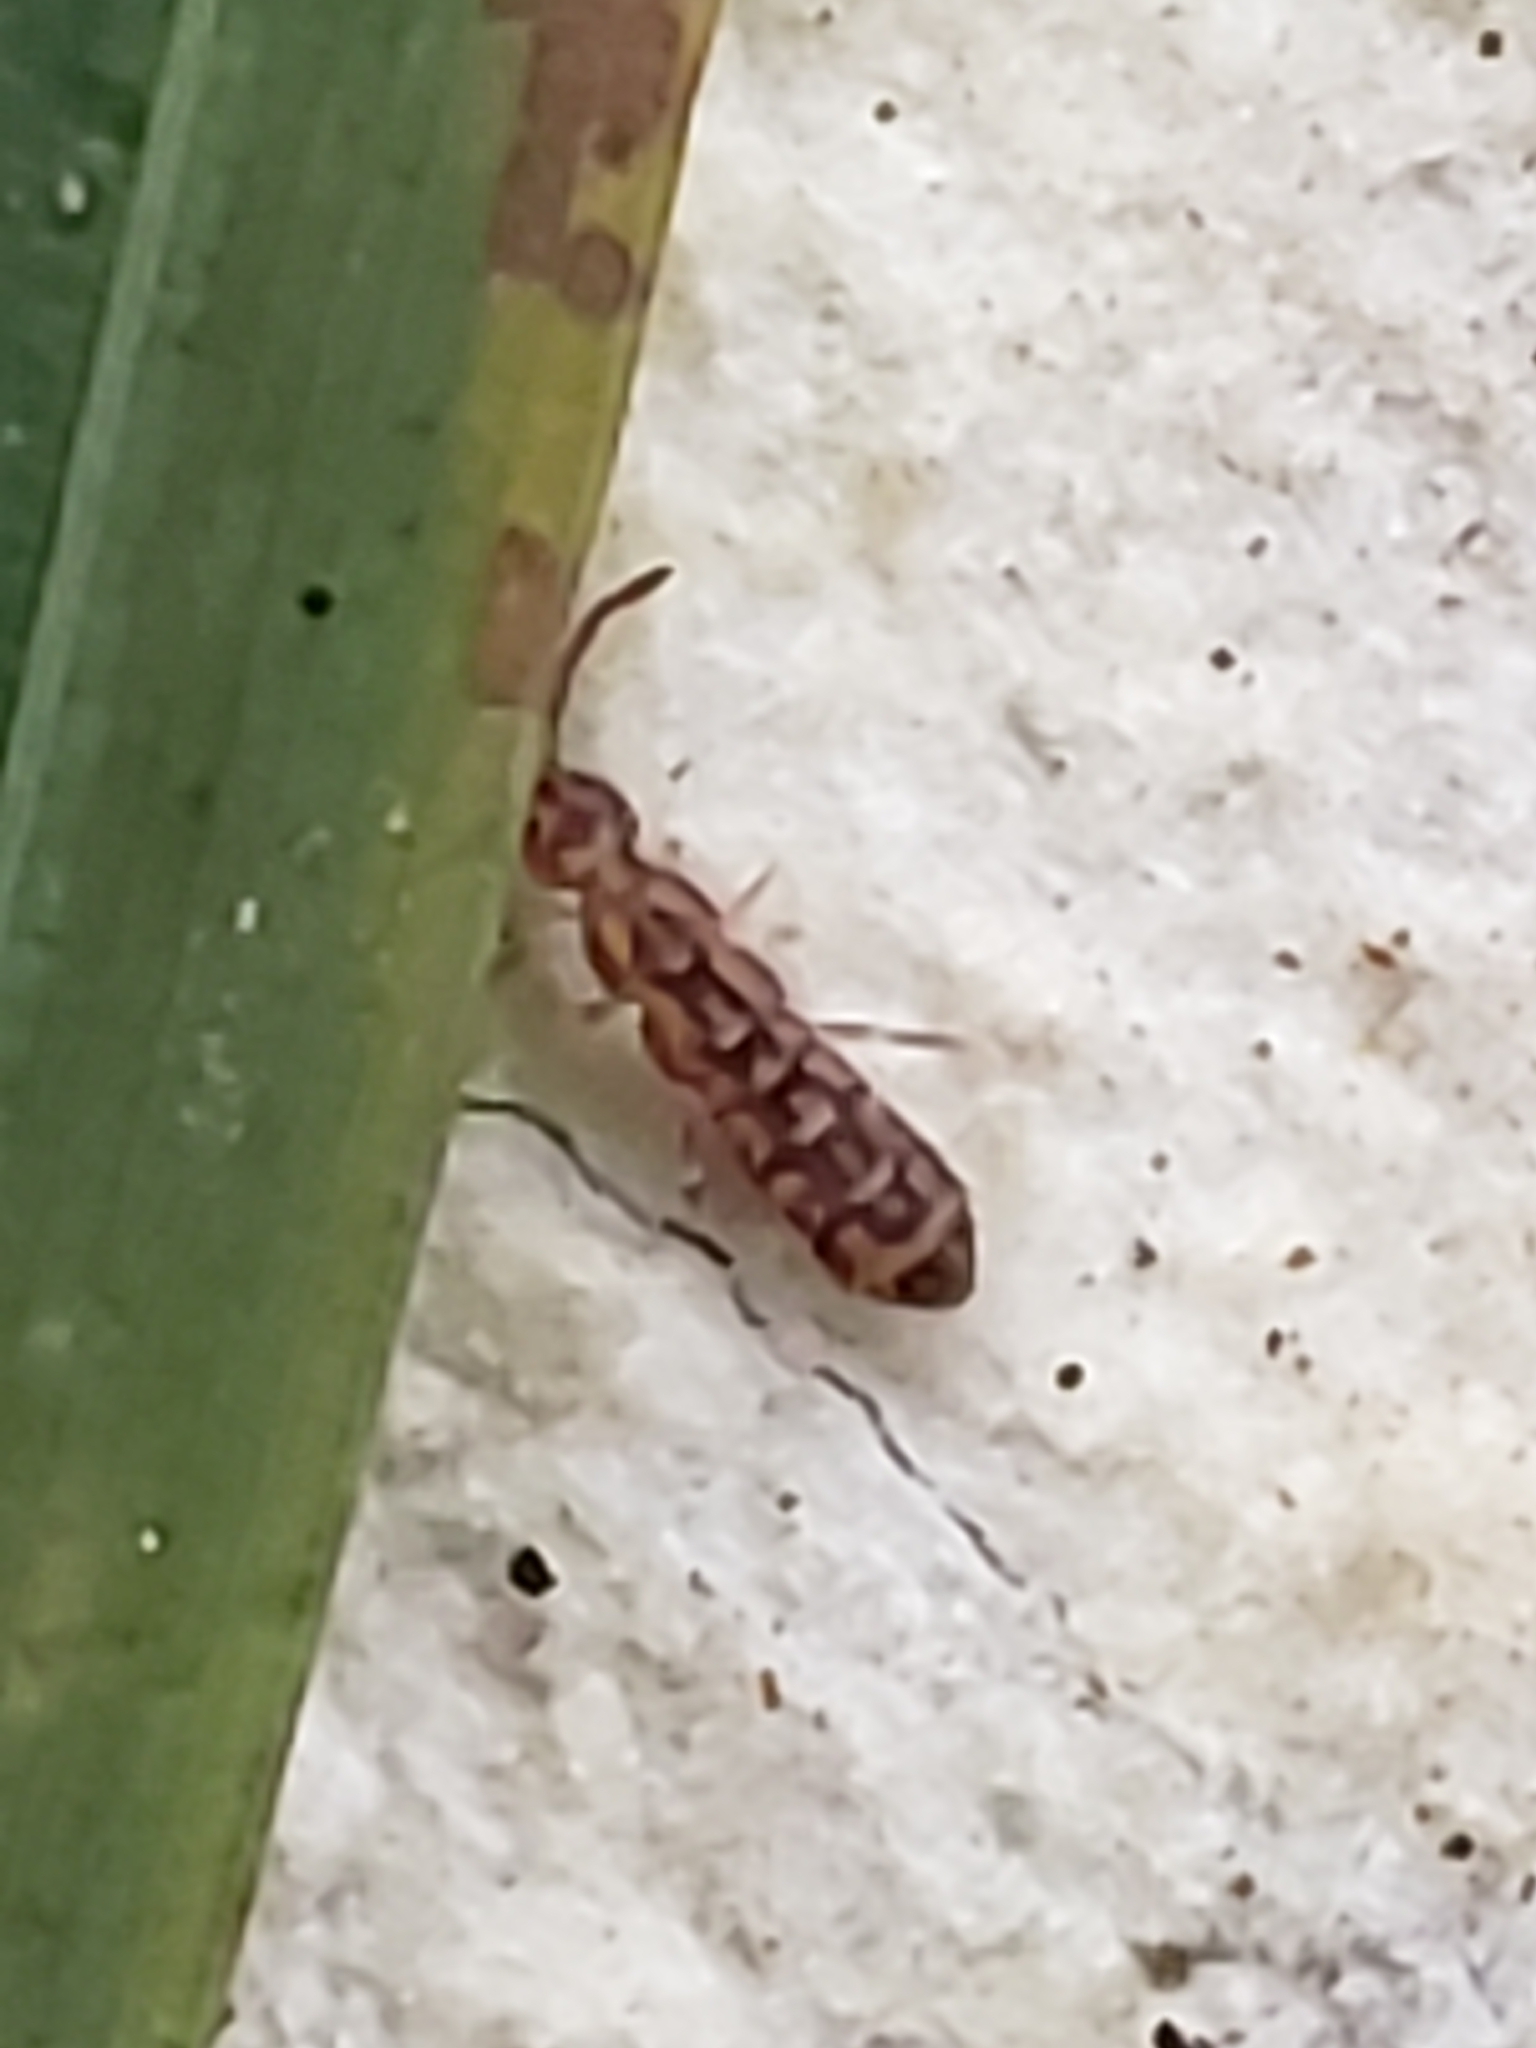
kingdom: Animalia
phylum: Arthropoda
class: Collembola
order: Entomobryomorpha
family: Isotomidae
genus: Isotoma
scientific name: Isotoma delta
